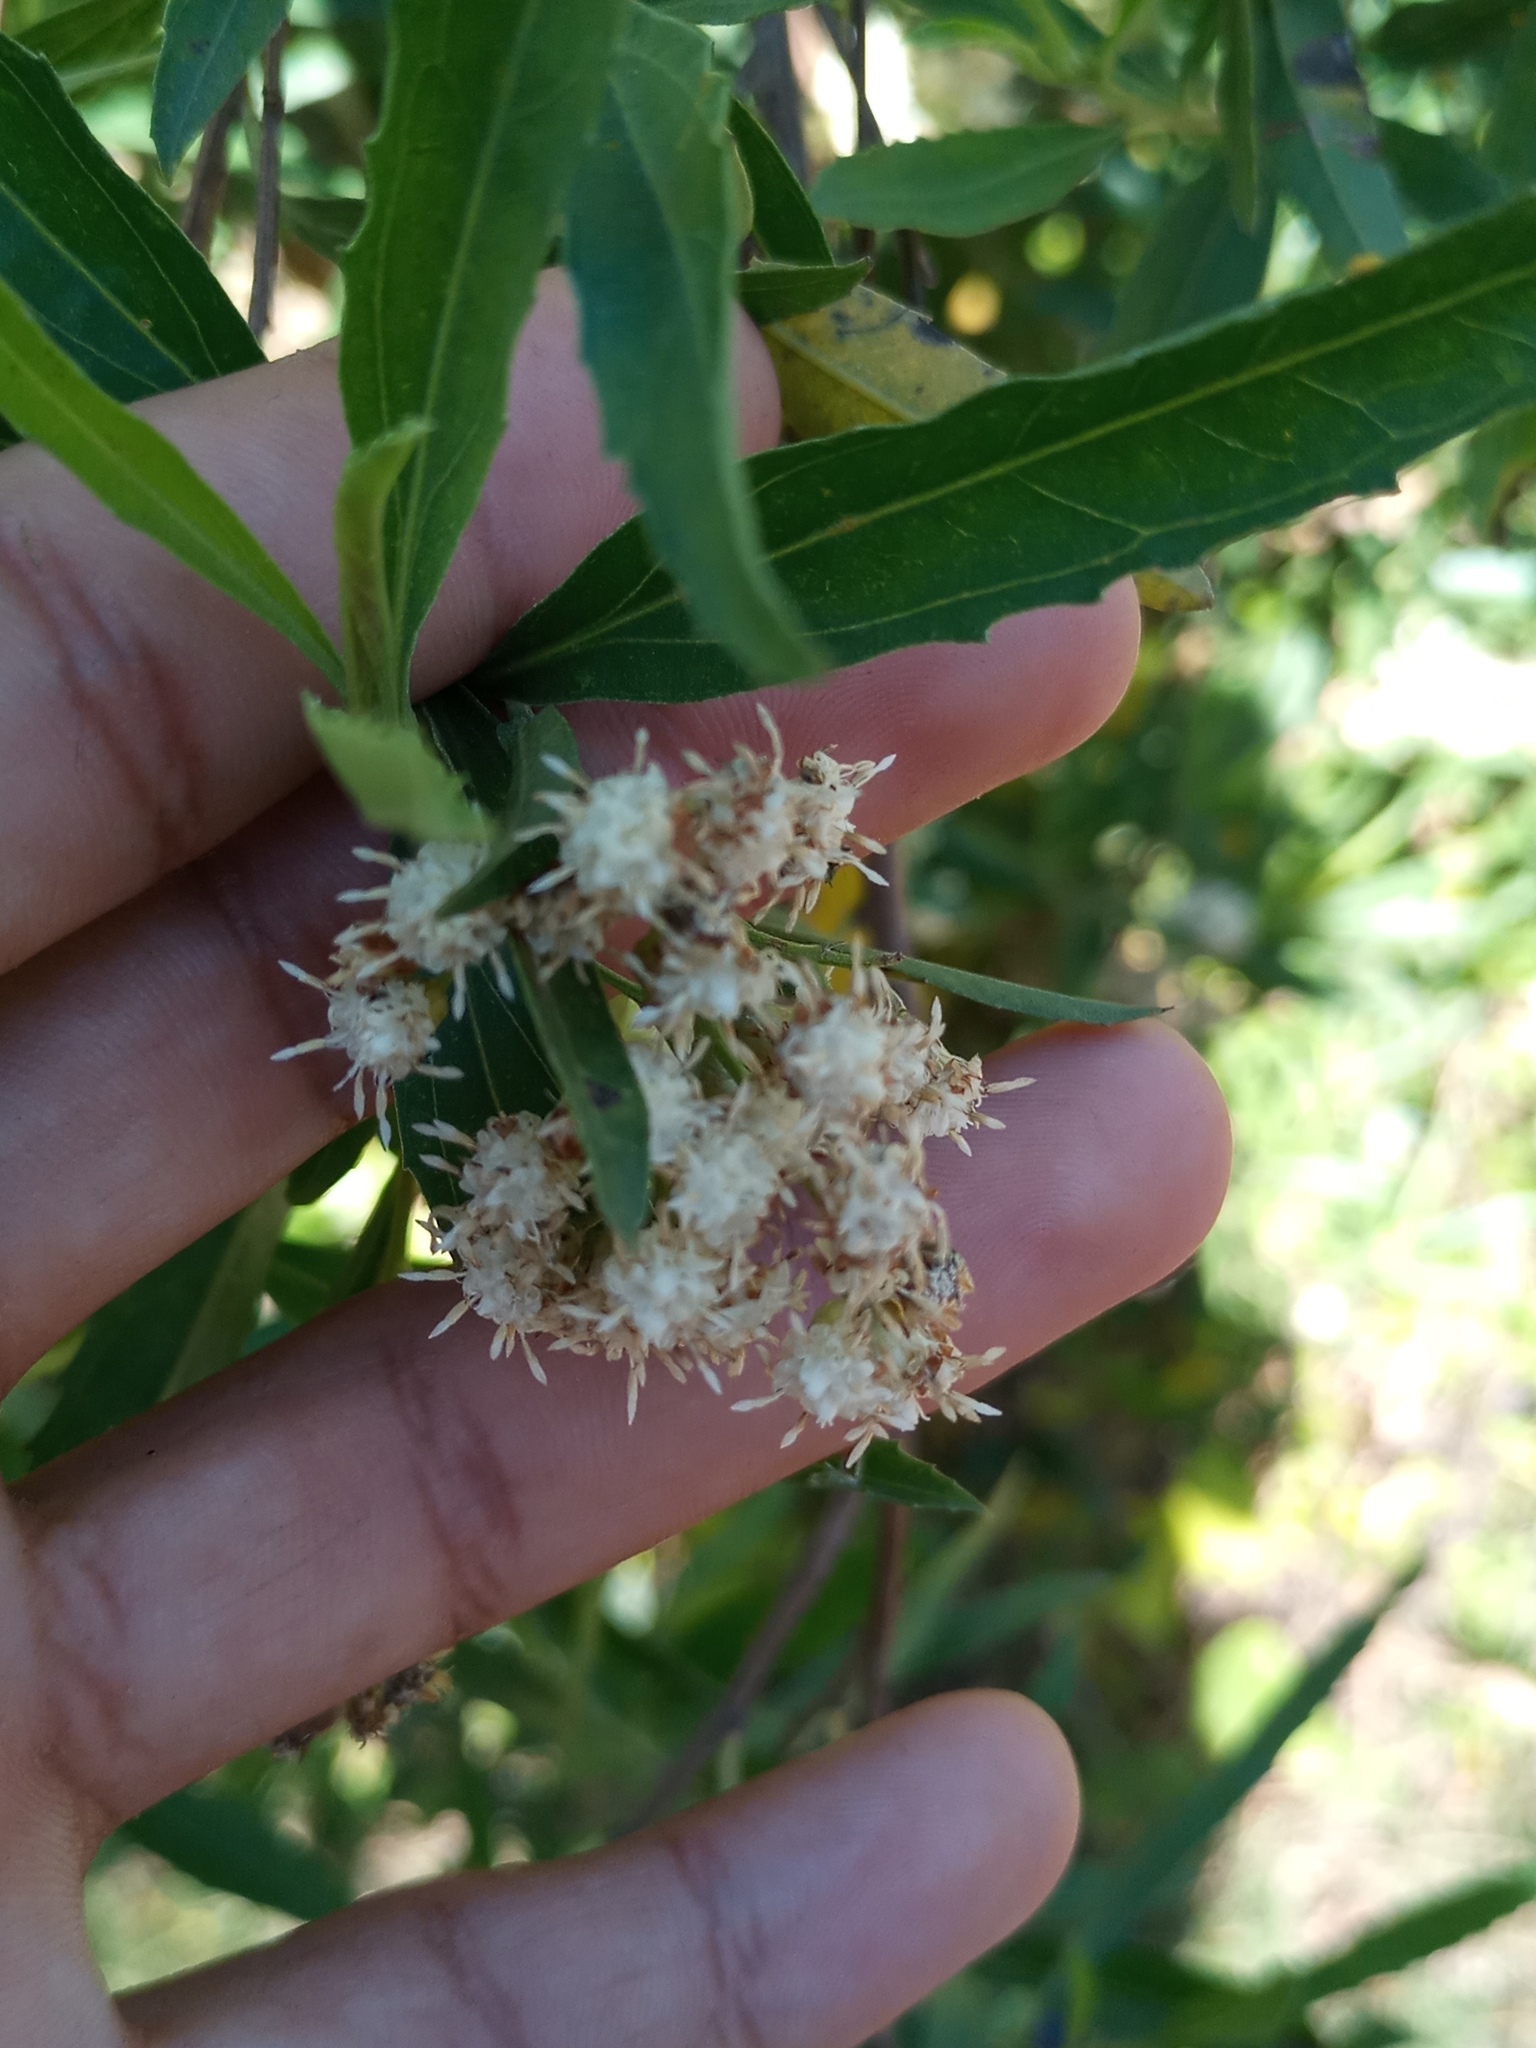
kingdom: Plantae
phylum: Tracheophyta
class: Magnoliopsida
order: Asterales
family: Asteraceae
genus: Baccharis
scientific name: Baccharis salicifolia
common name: Sticky baccharis
